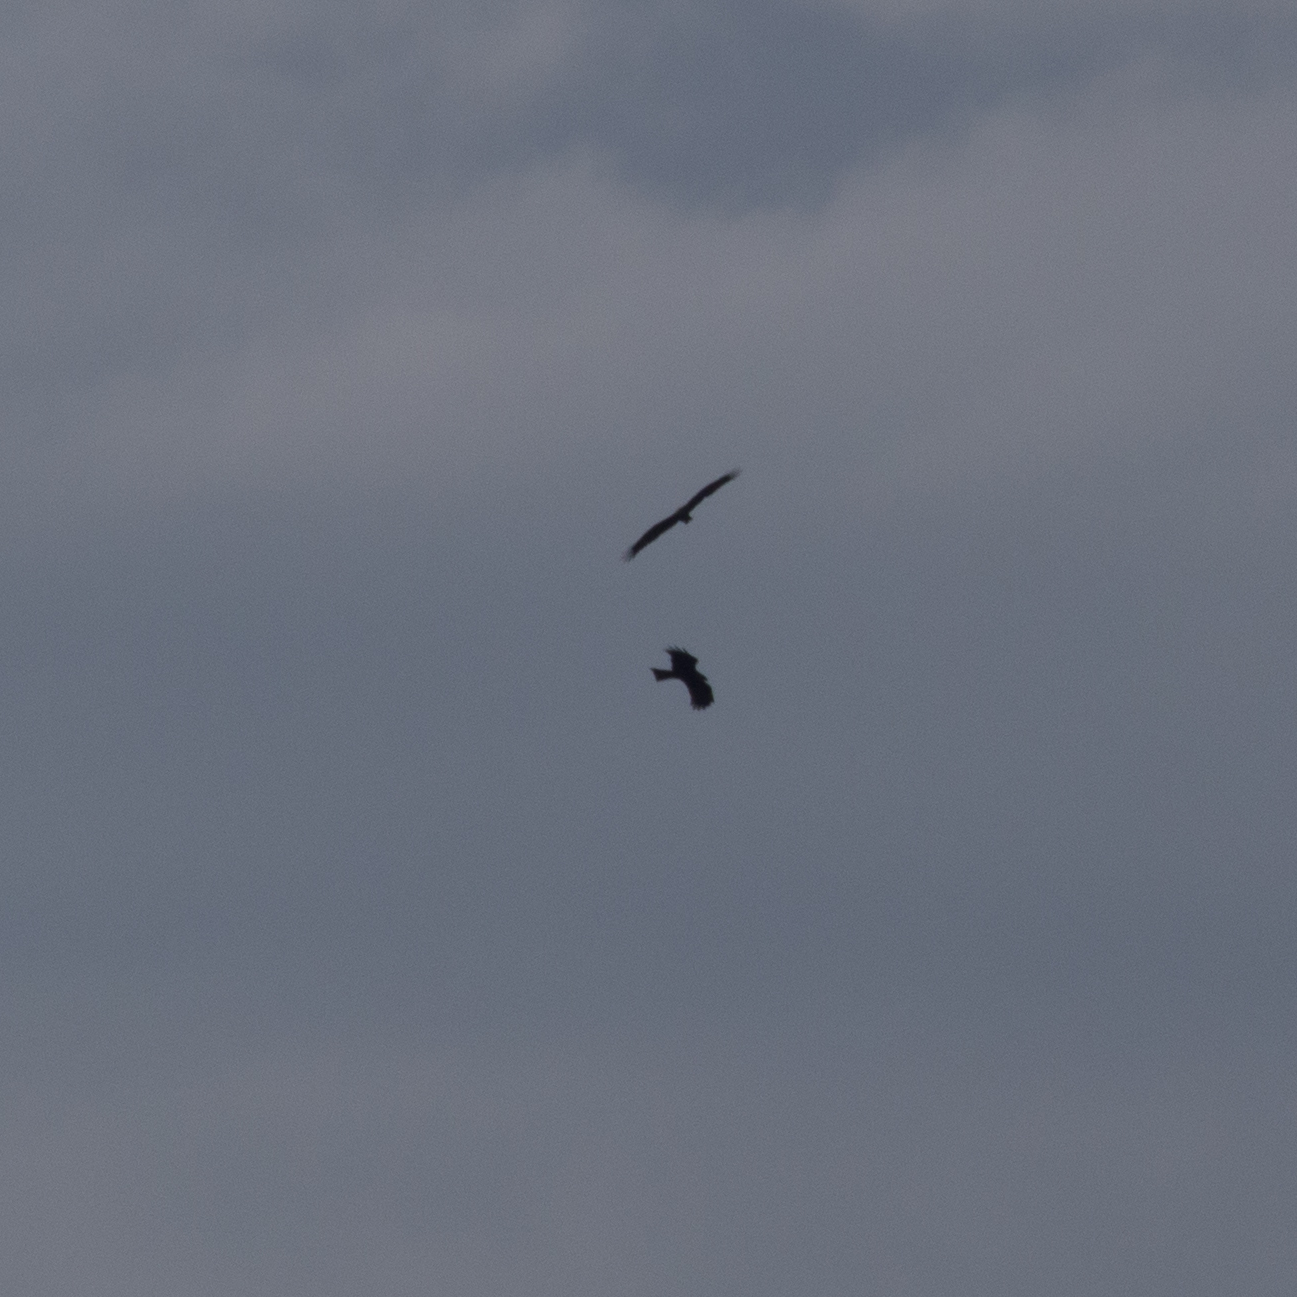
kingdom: Animalia
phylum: Chordata
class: Aves
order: Accipitriformes
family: Accipitridae
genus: Milvus
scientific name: Milvus migrans
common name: Black kite
